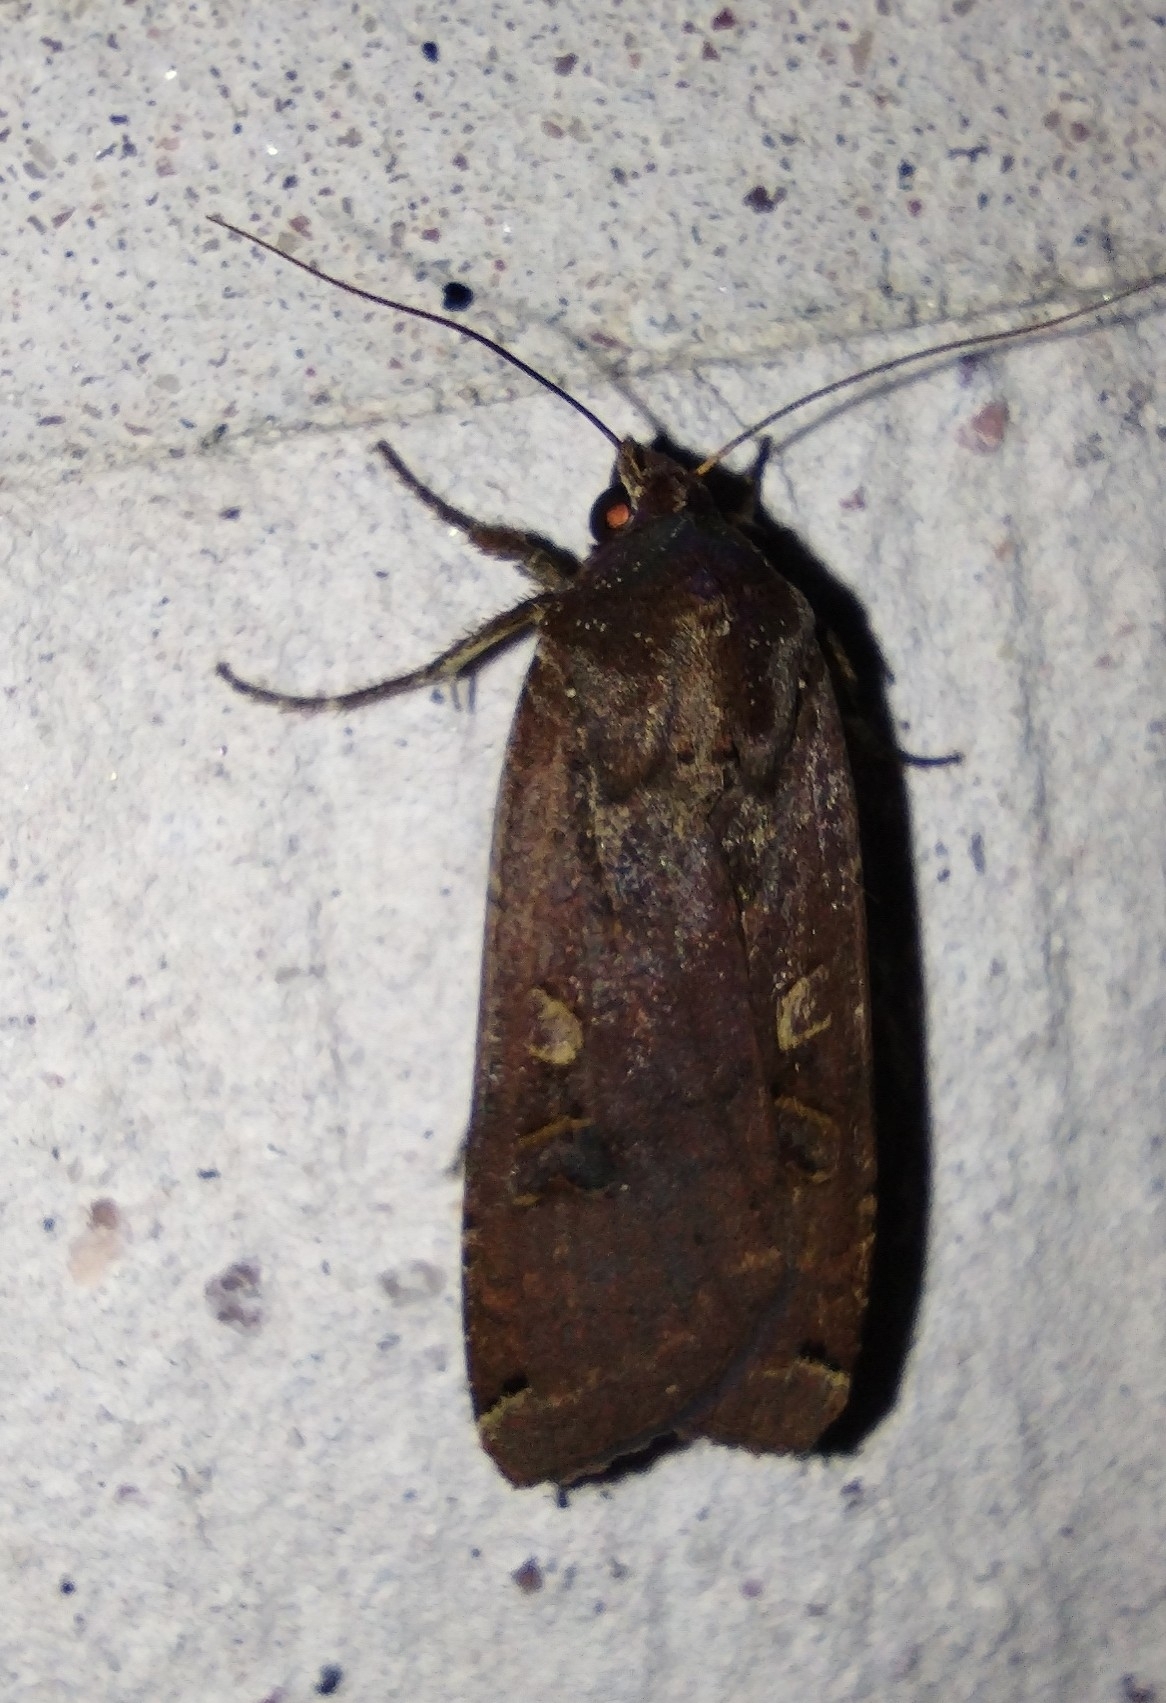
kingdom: Animalia
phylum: Arthropoda
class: Insecta
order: Lepidoptera
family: Noctuidae
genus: Noctua
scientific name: Noctua pronuba
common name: Large yellow underwing
